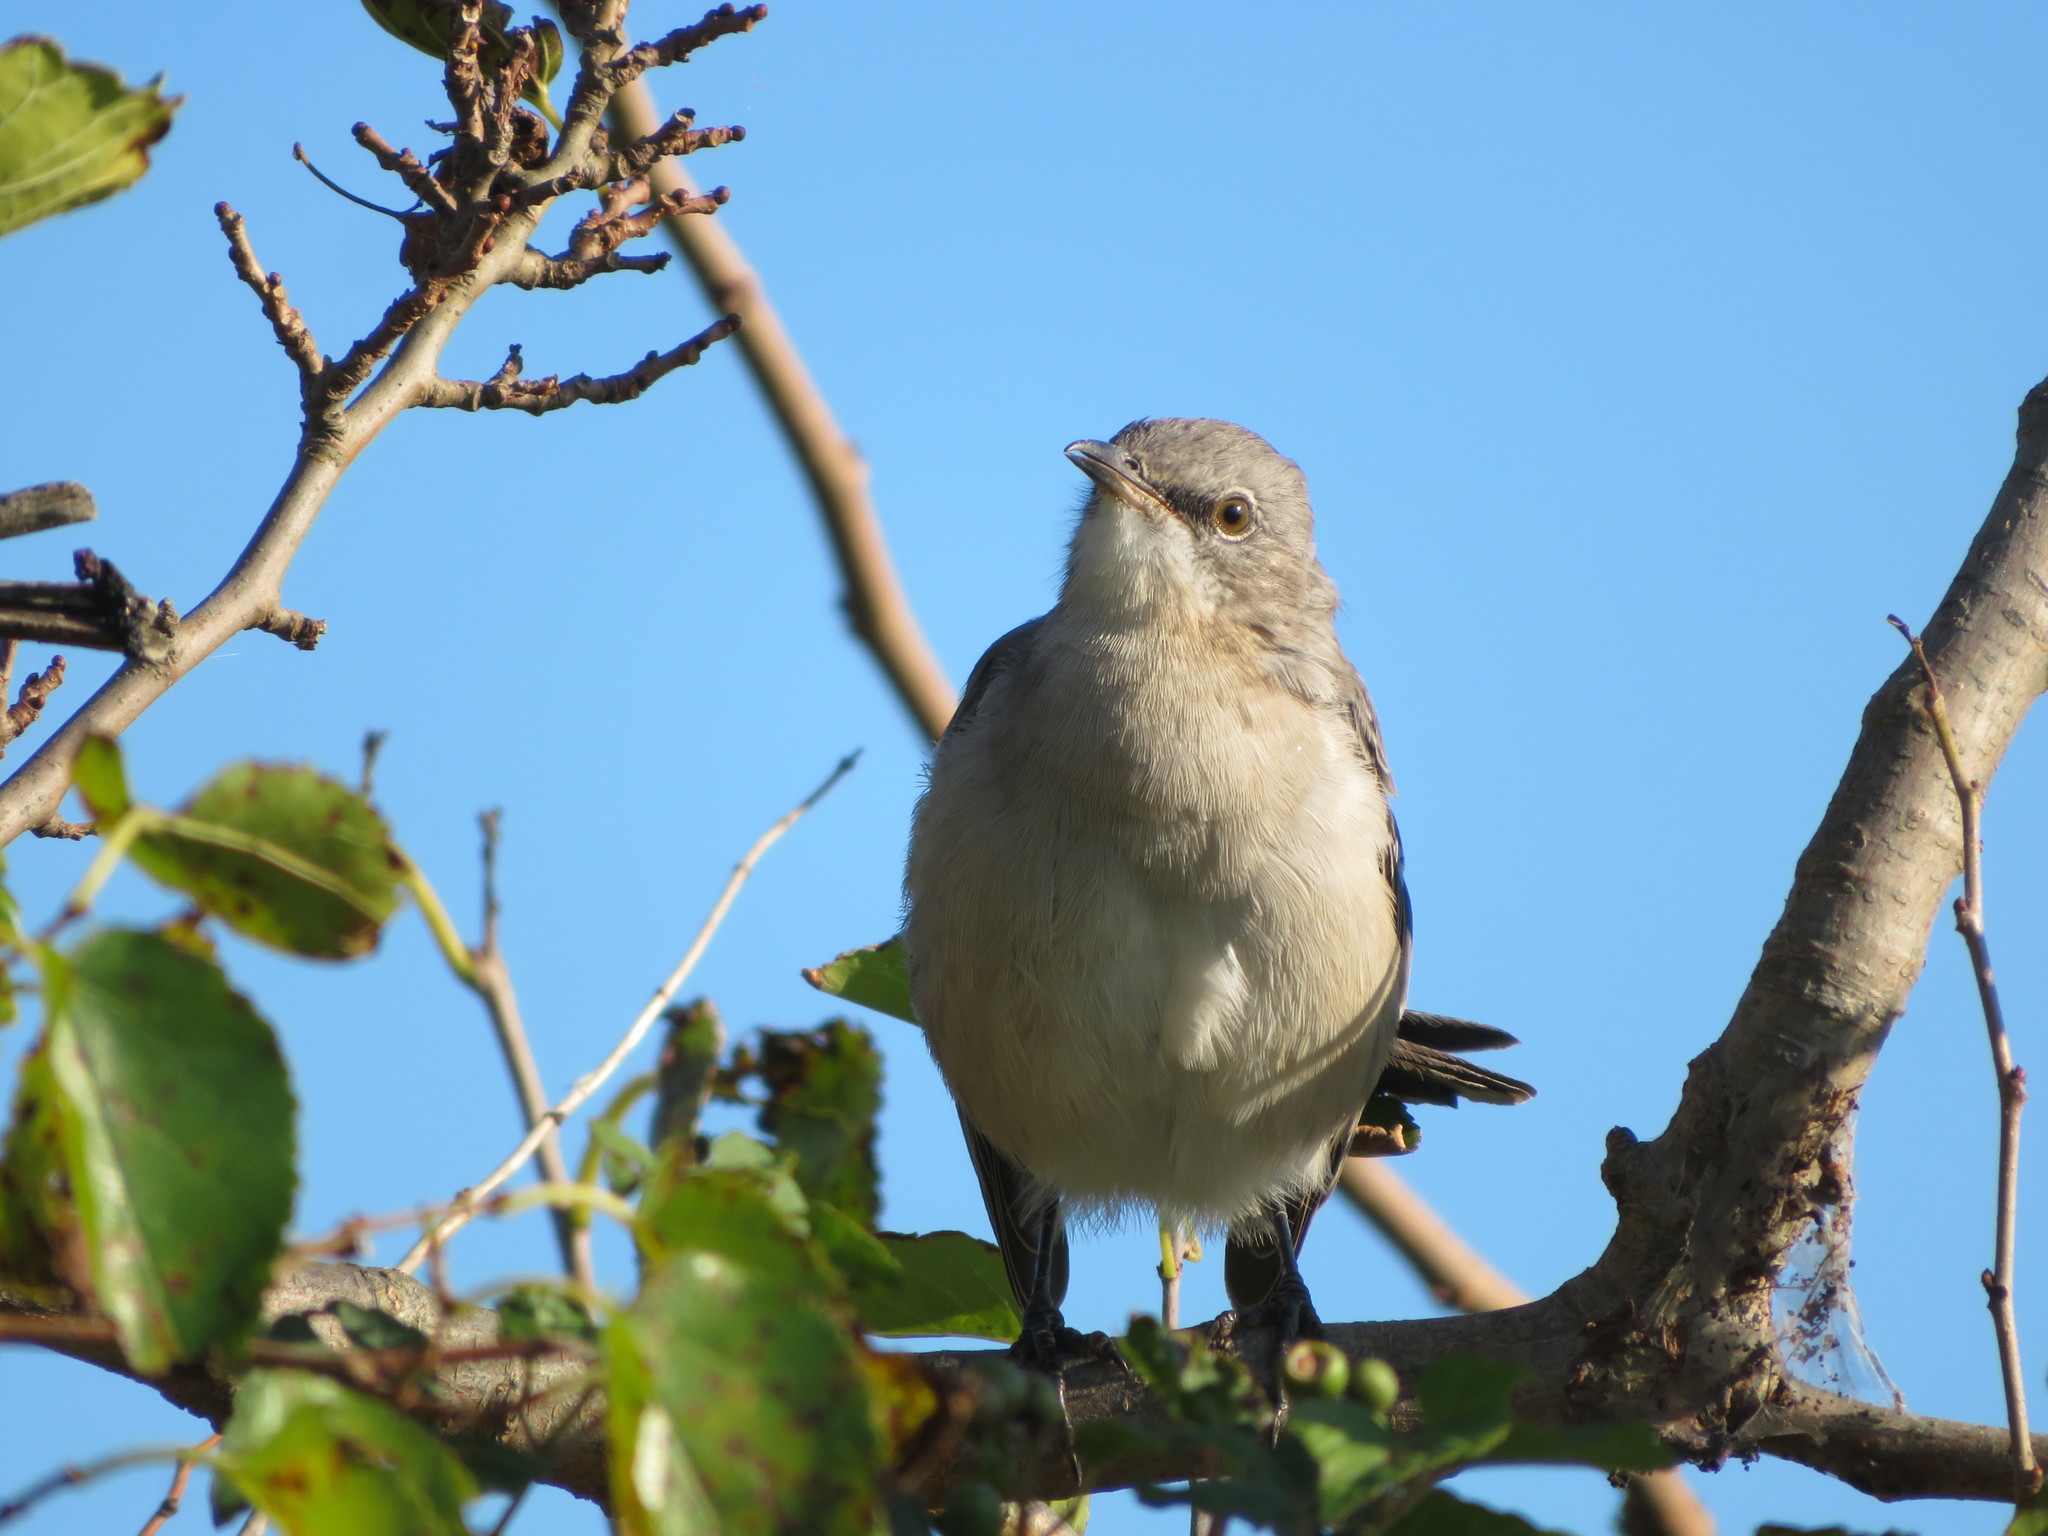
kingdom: Animalia
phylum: Chordata
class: Aves
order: Passeriformes
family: Mimidae
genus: Mimus
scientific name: Mimus polyglottos
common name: Northern mockingbird
